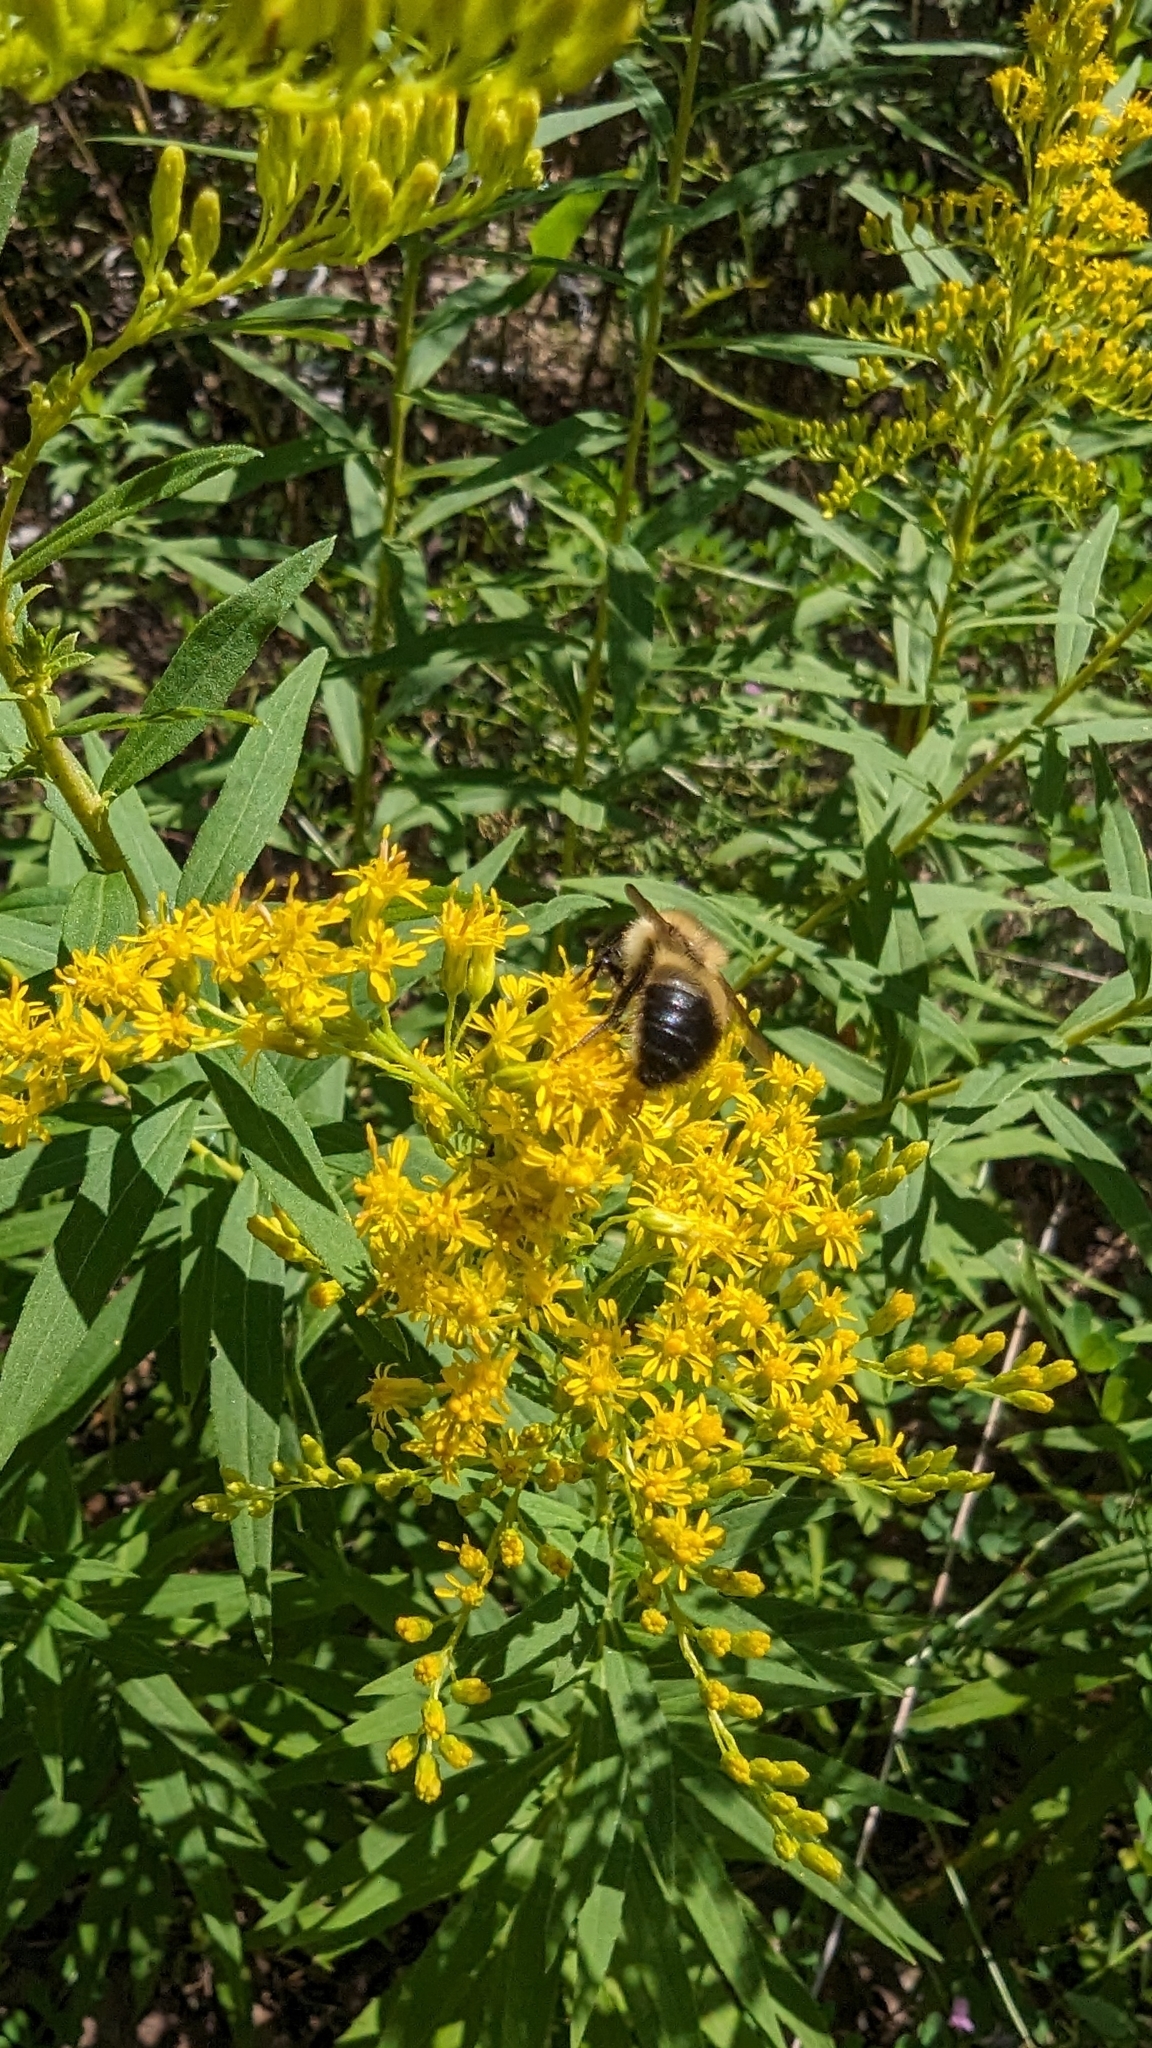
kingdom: Animalia
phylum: Arthropoda
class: Insecta
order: Hymenoptera
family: Apidae
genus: Bombus
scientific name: Bombus vagans
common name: Half-black bumble bee
